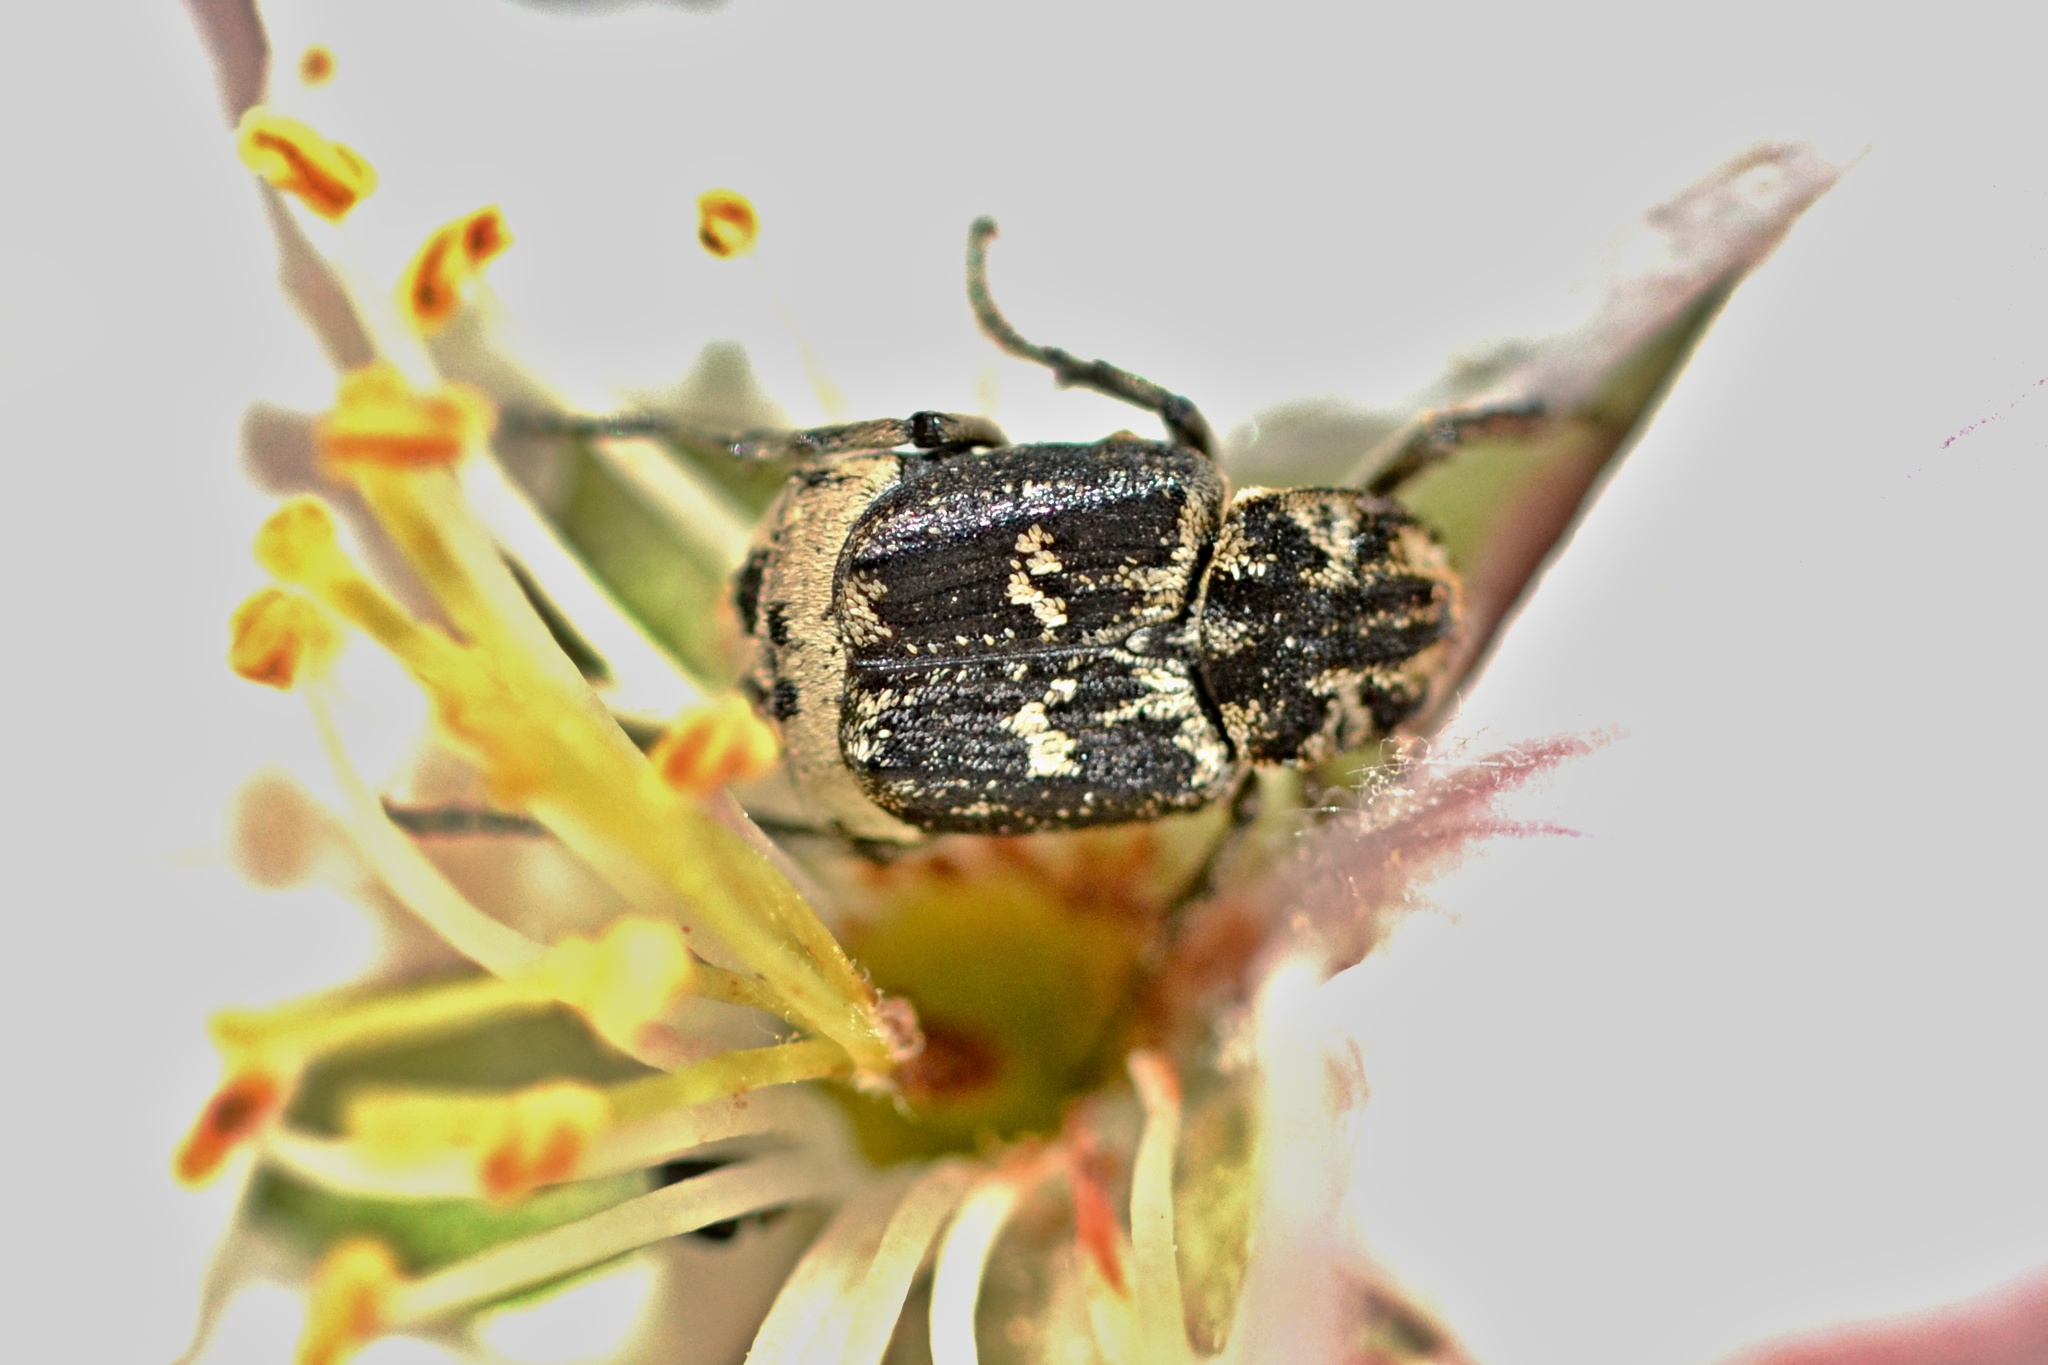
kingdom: Animalia
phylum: Arthropoda
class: Insecta
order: Coleoptera
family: Scarabaeidae
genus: Valgus
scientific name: Valgus hemipterus
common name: Bug flower chafer
